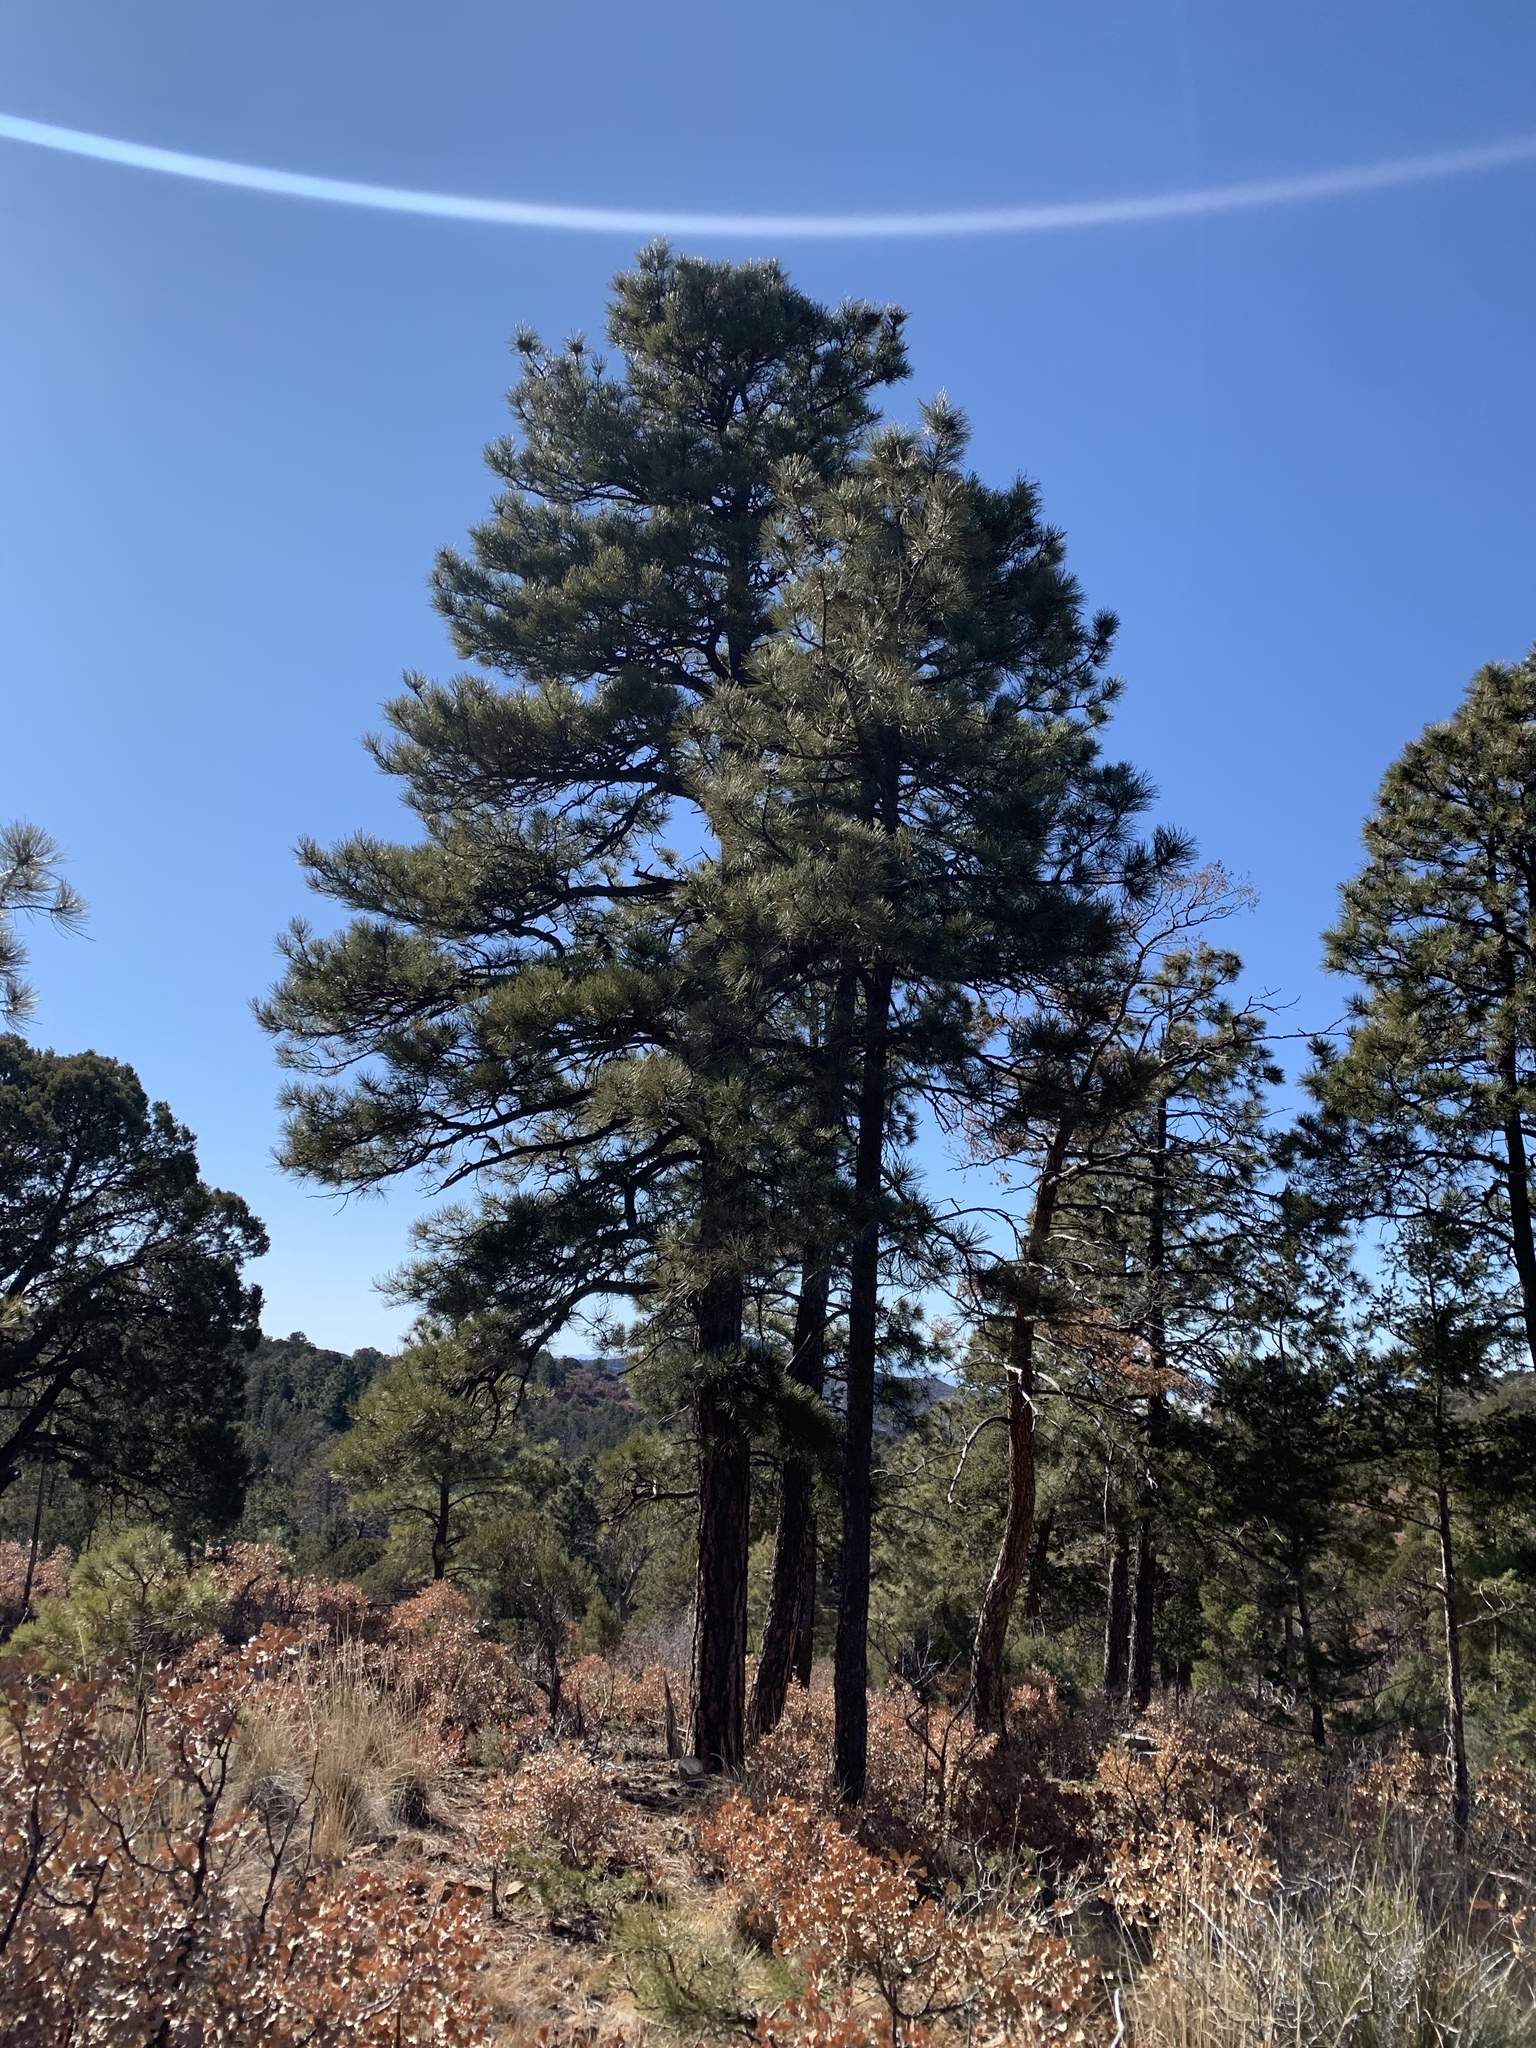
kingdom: Plantae
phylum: Tracheophyta
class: Pinopsida
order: Pinales
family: Pinaceae
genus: Pinus
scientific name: Pinus ponderosa
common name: Western yellow-pine
